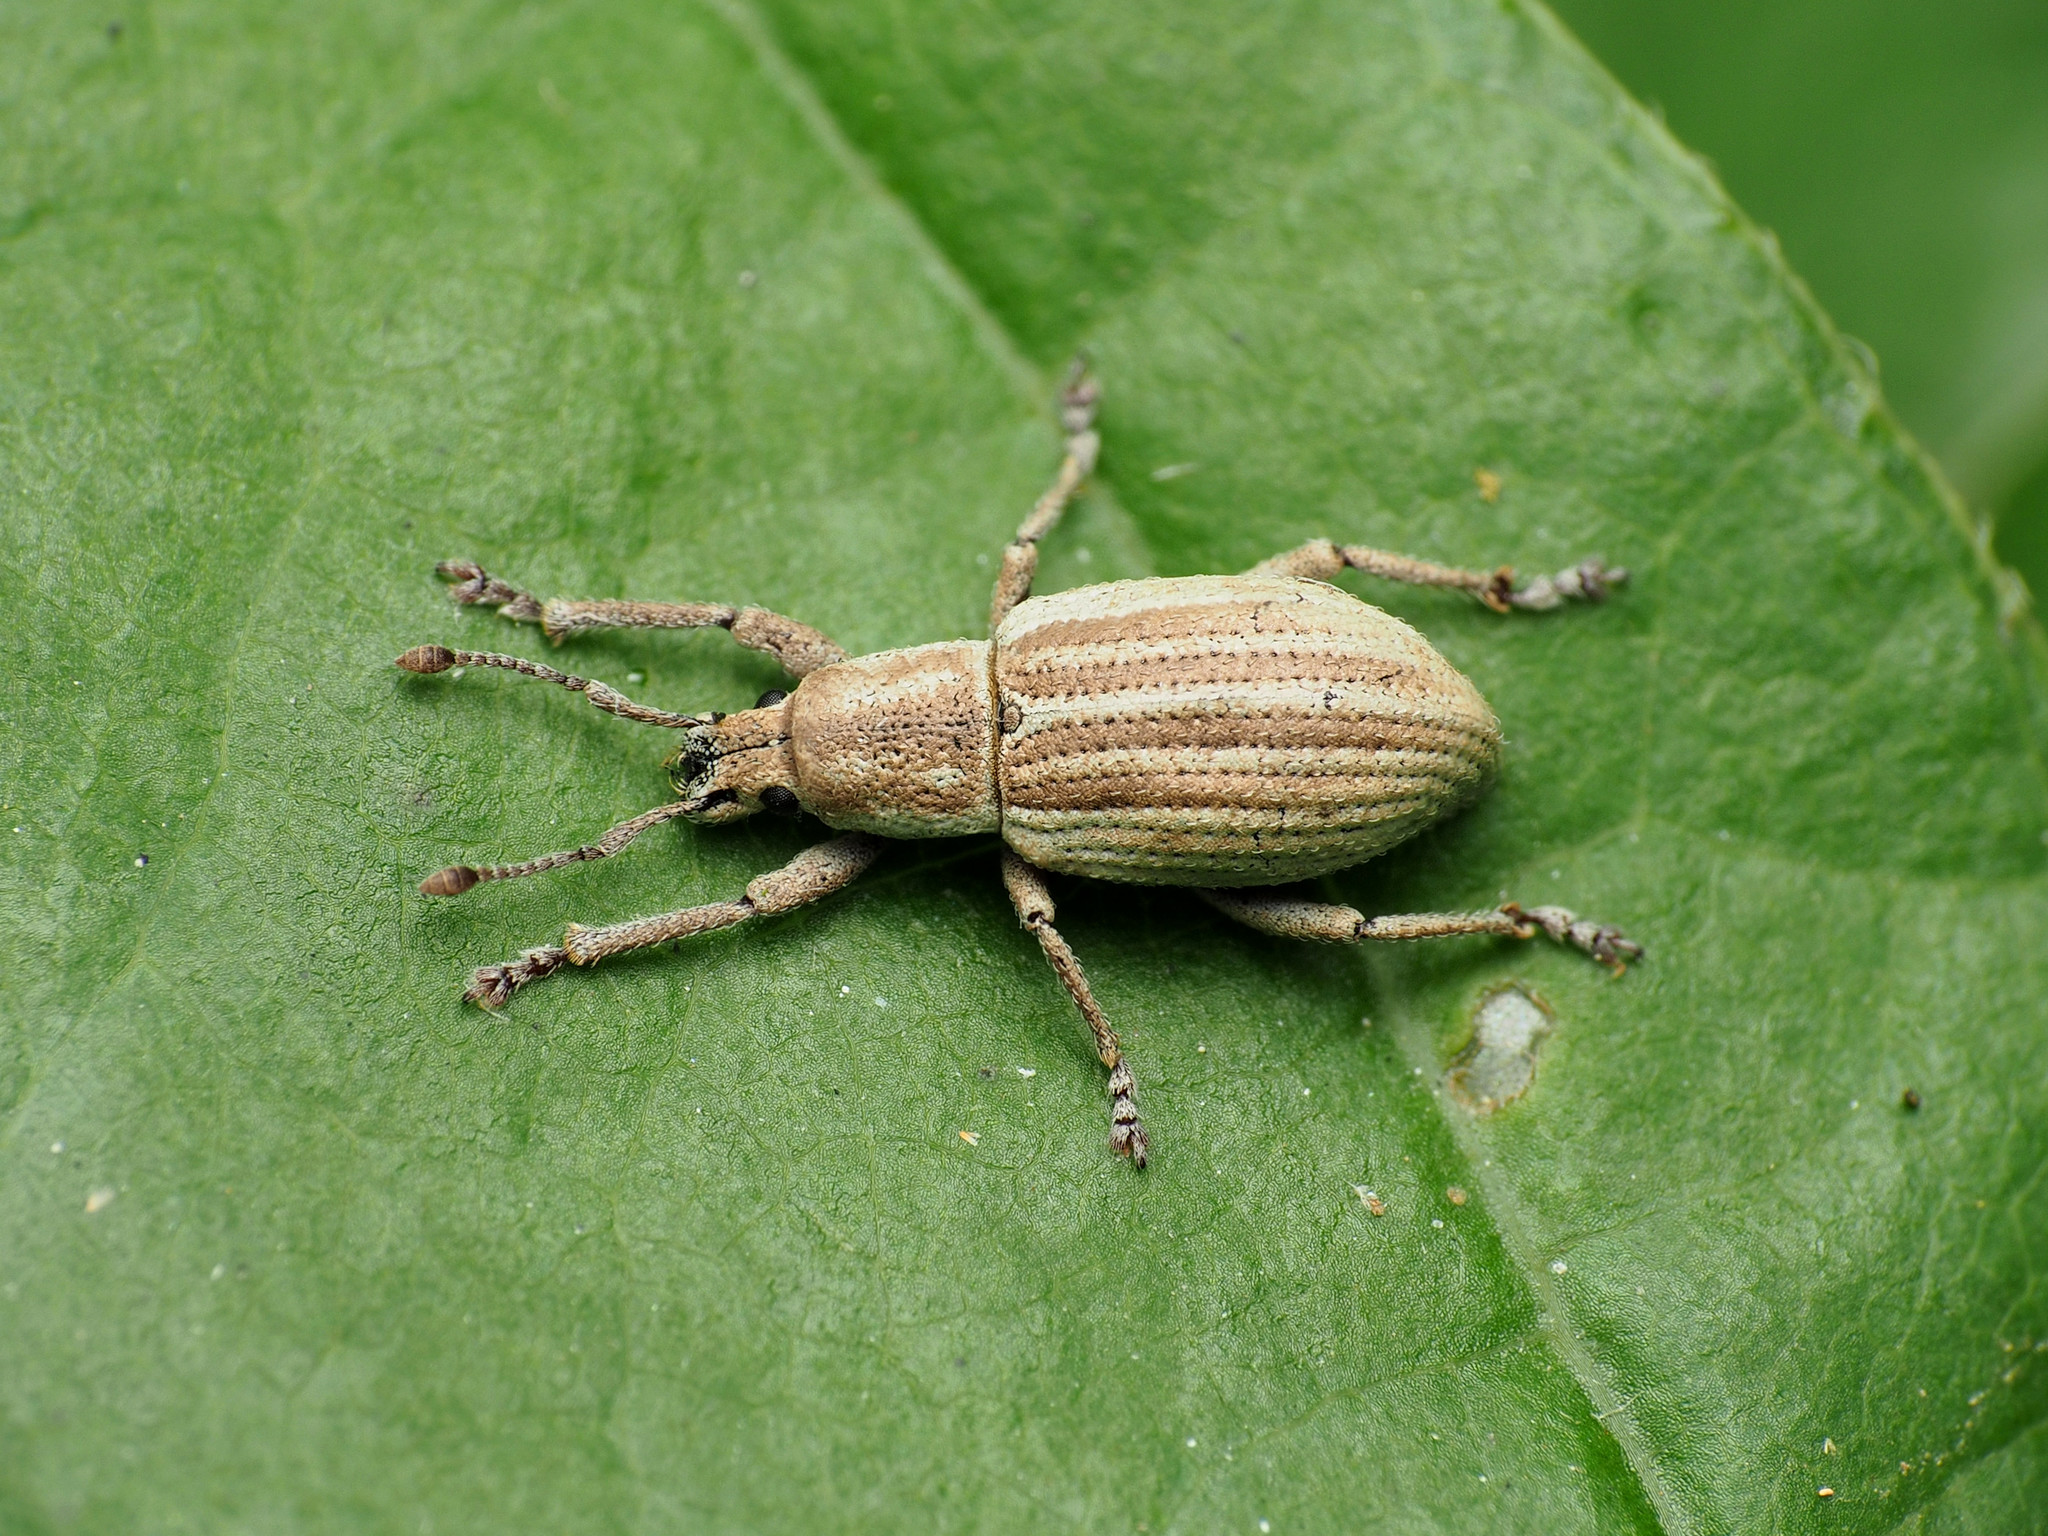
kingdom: Animalia
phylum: Arthropoda
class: Insecta
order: Coleoptera
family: Curculionidae
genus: Aphrastus
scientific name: Aphrastus taeniatus
